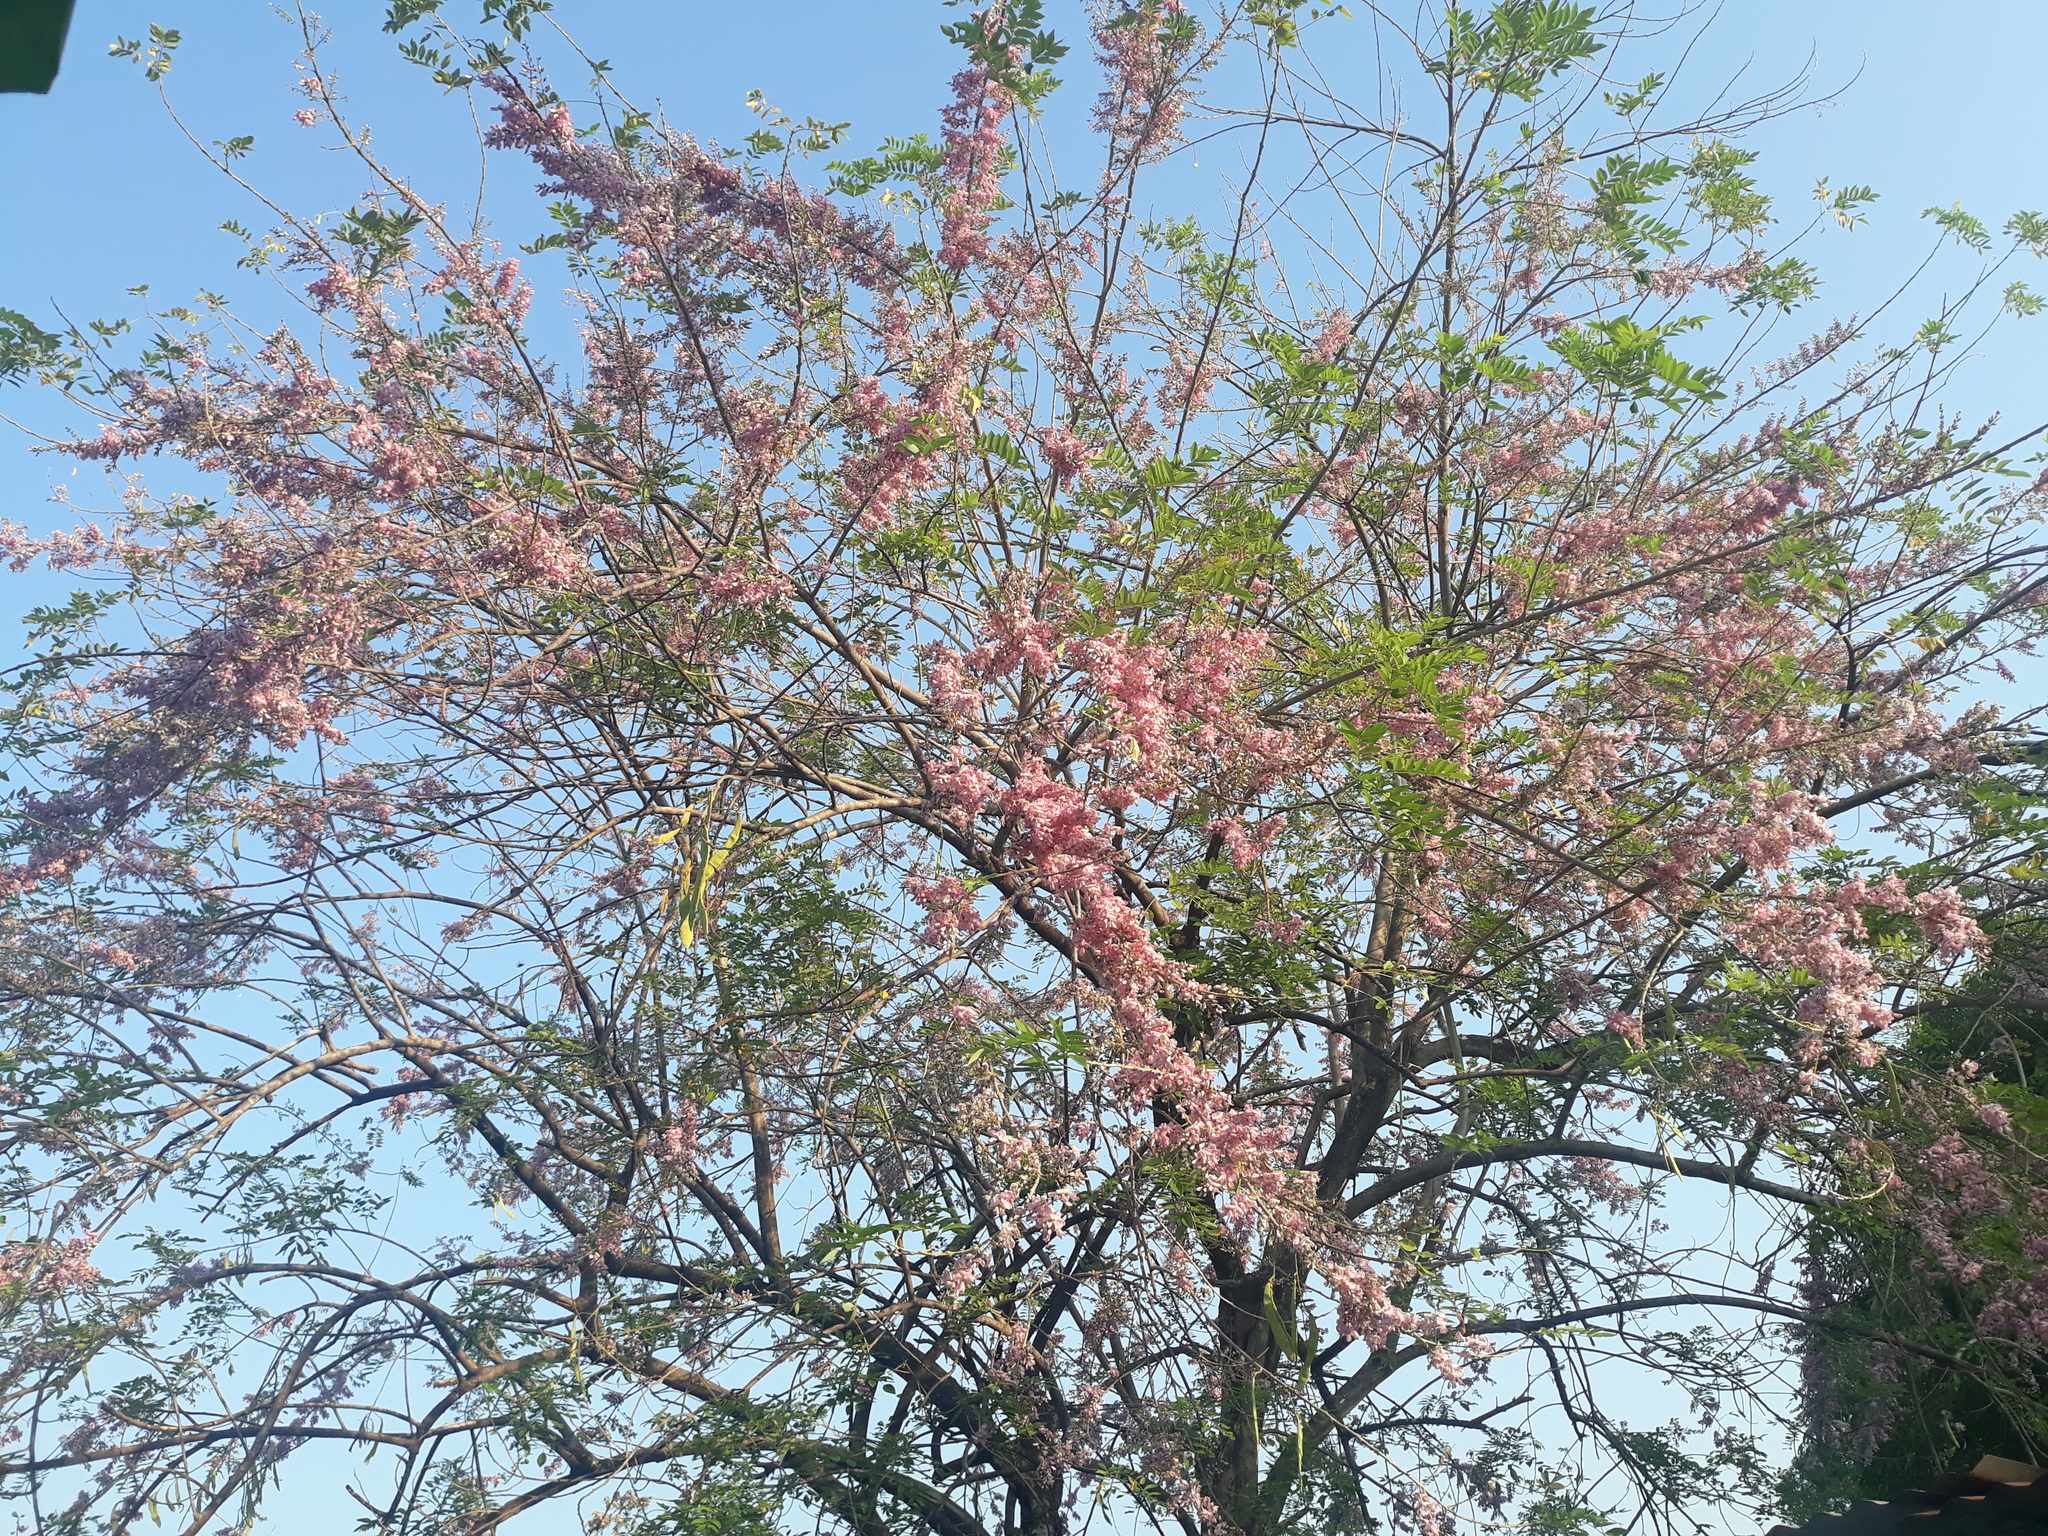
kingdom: Plantae
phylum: Tracheophyta
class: Magnoliopsida
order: Fabales
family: Fabaceae
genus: Gliricidia
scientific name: Gliricidia sepium
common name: Quickstick
